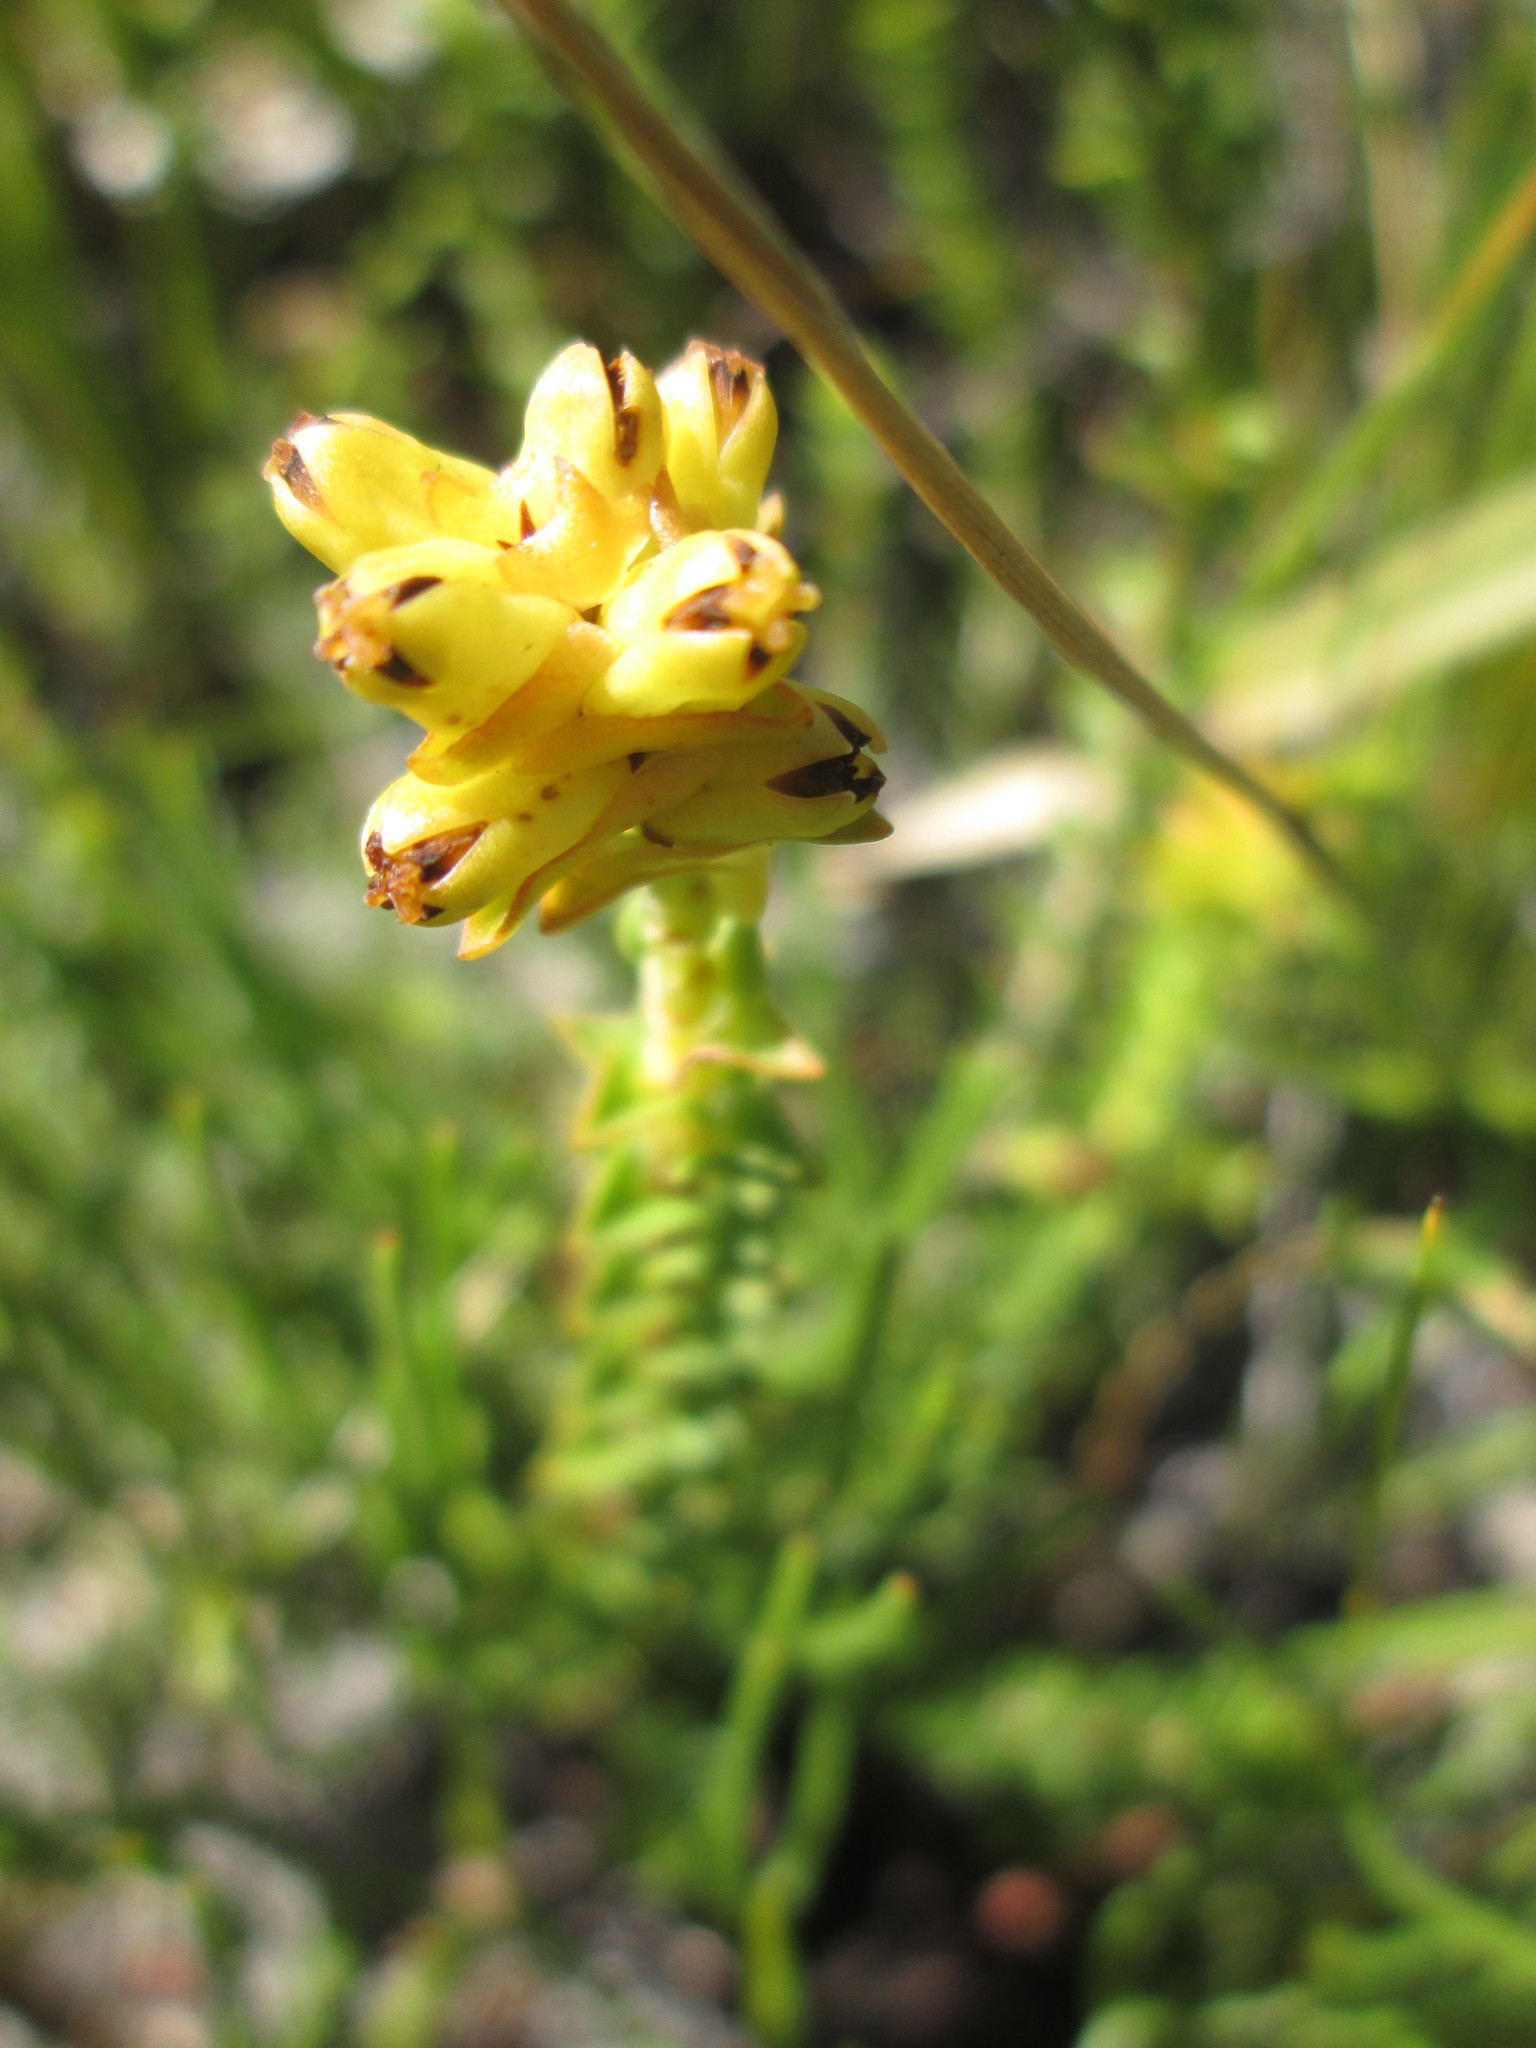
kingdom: Plantae
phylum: Tracheophyta
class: Magnoliopsida
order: Myrtales
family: Penaeaceae
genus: Penaea
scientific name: Penaea cneorum
